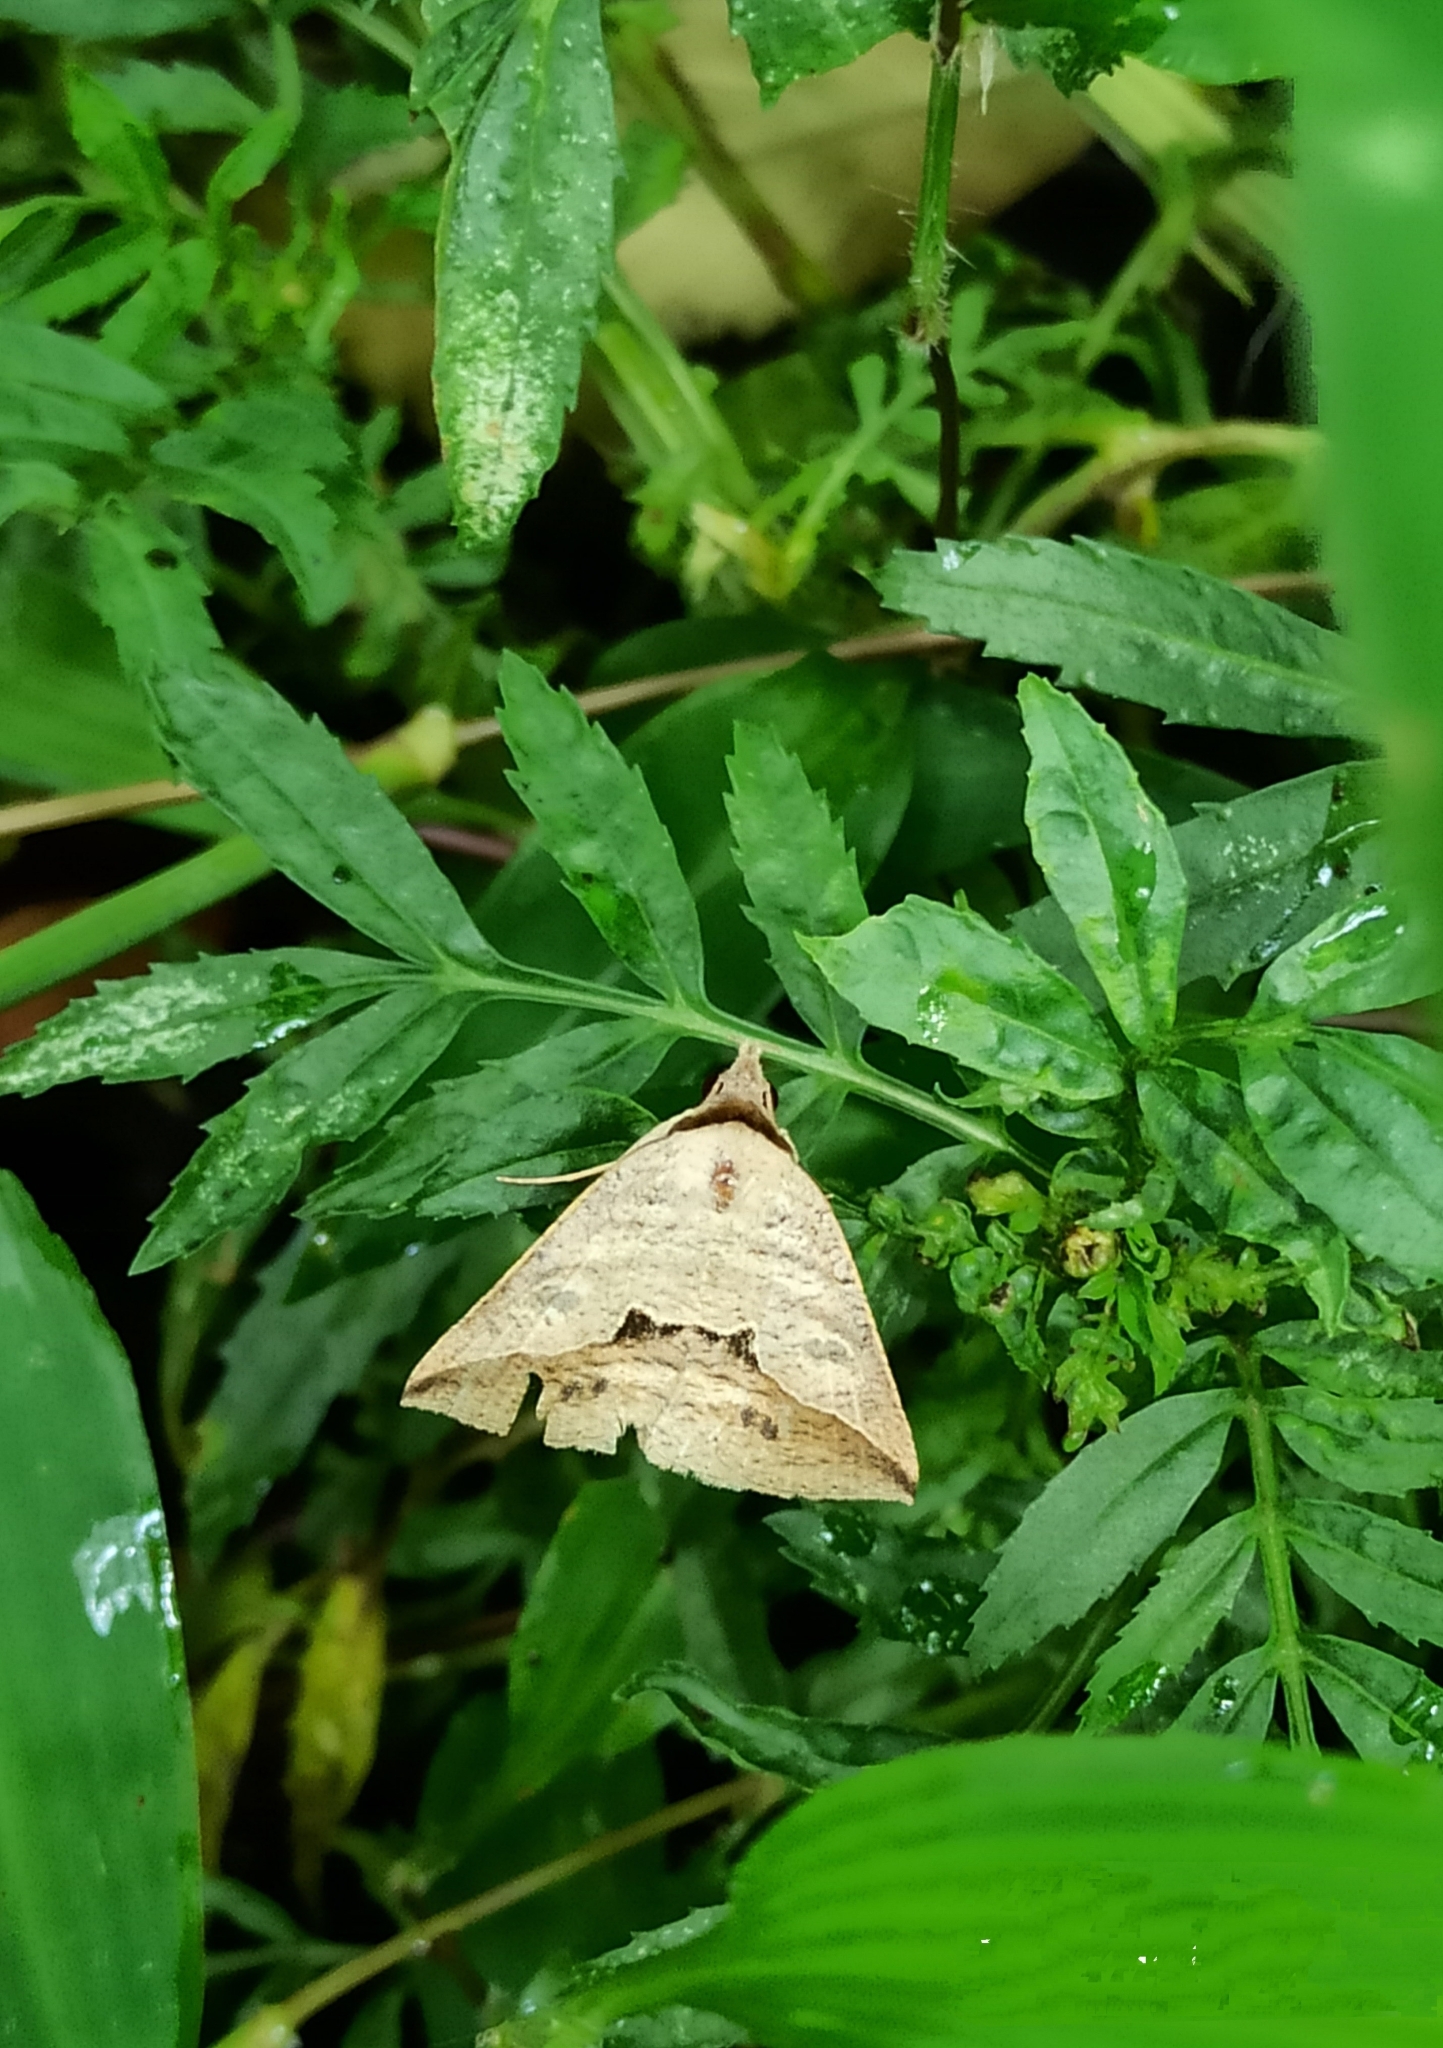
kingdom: Animalia
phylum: Arthropoda
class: Insecta
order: Lepidoptera
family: Erebidae
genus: Dierna
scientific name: Dierna patibulum
